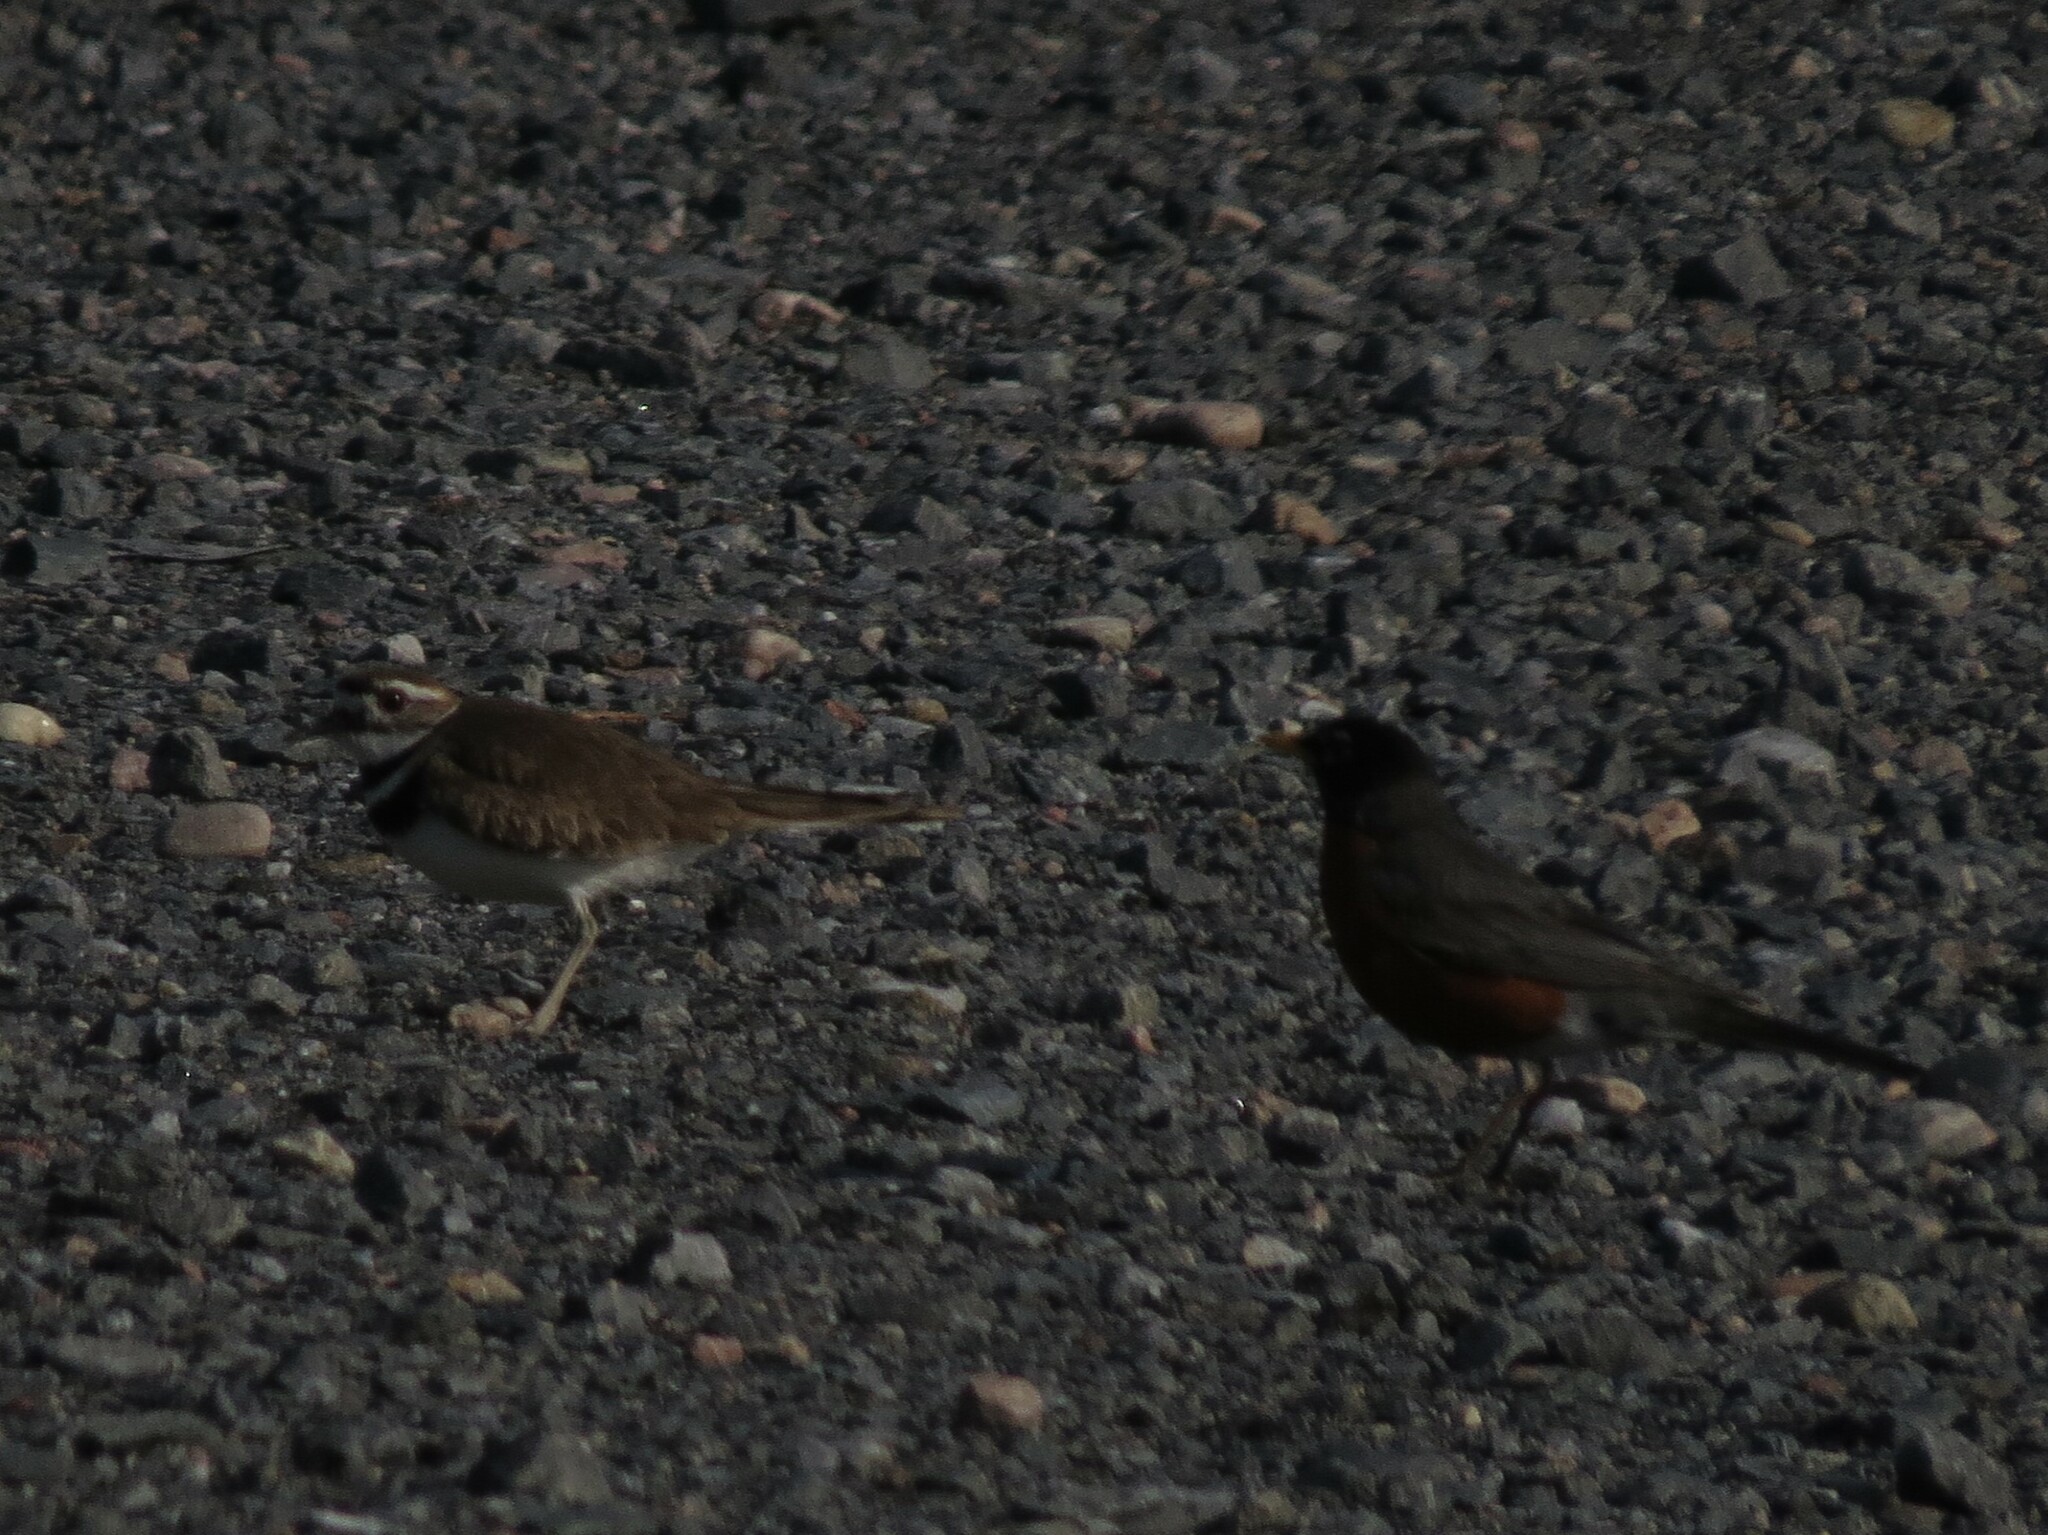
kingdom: Animalia
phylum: Chordata
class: Aves
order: Passeriformes
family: Turdidae
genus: Turdus
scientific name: Turdus migratorius
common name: American robin
